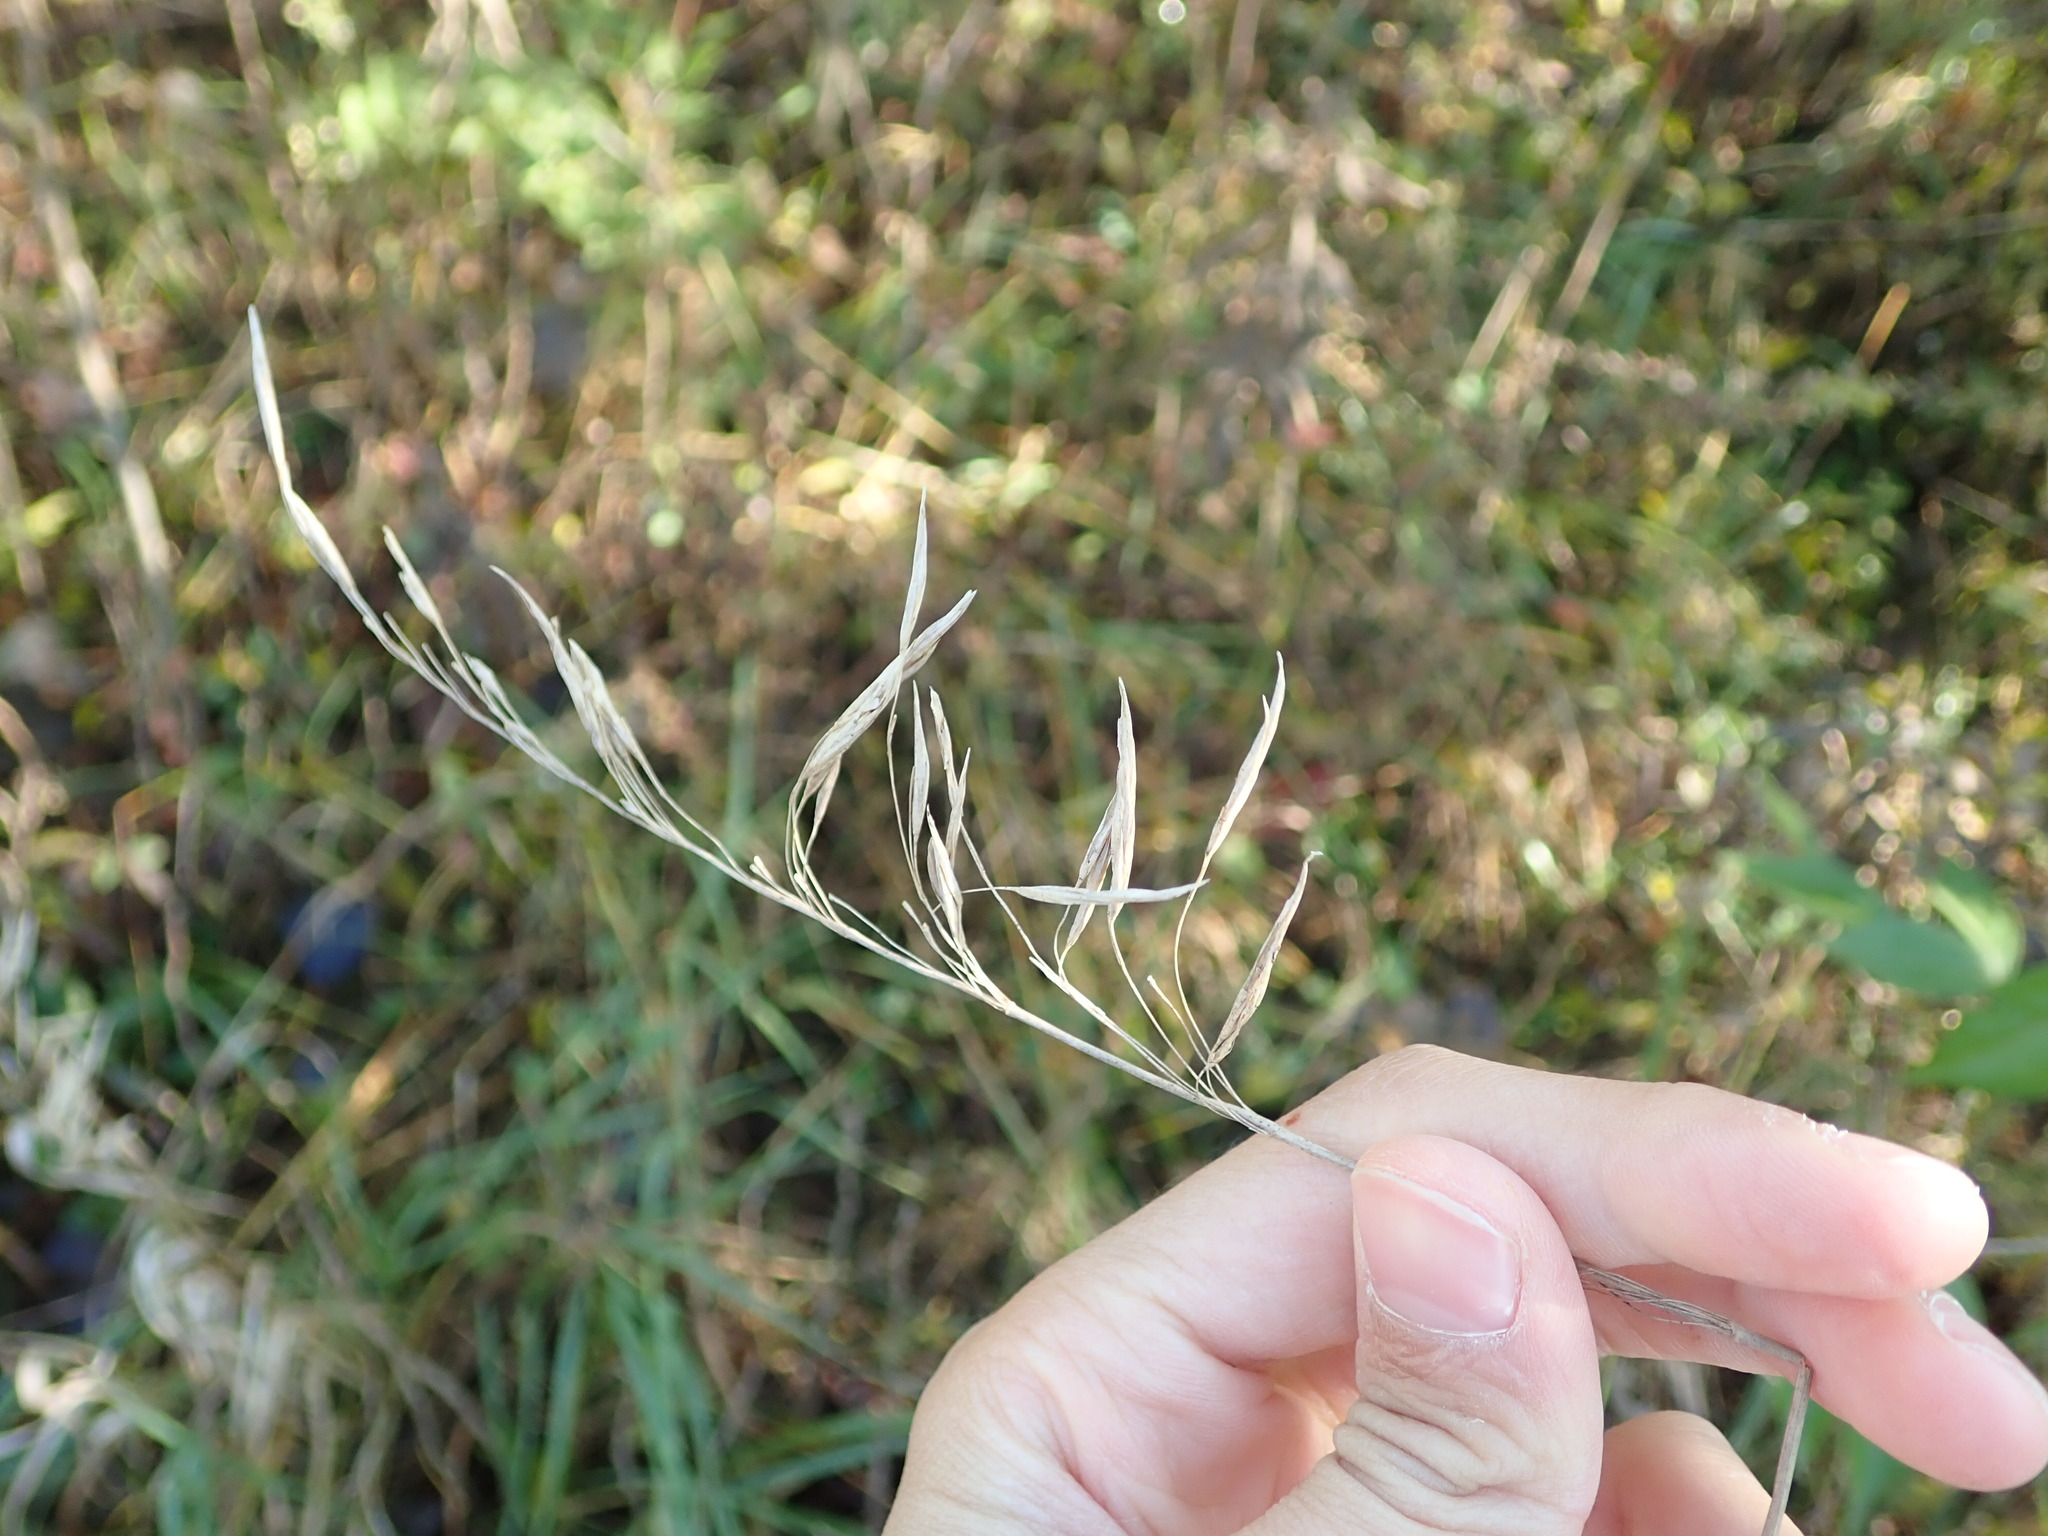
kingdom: Plantae
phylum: Tracheophyta
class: Liliopsida
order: Poales
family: Poaceae
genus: Bromus
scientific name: Bromus inermis
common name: Smooth brome
